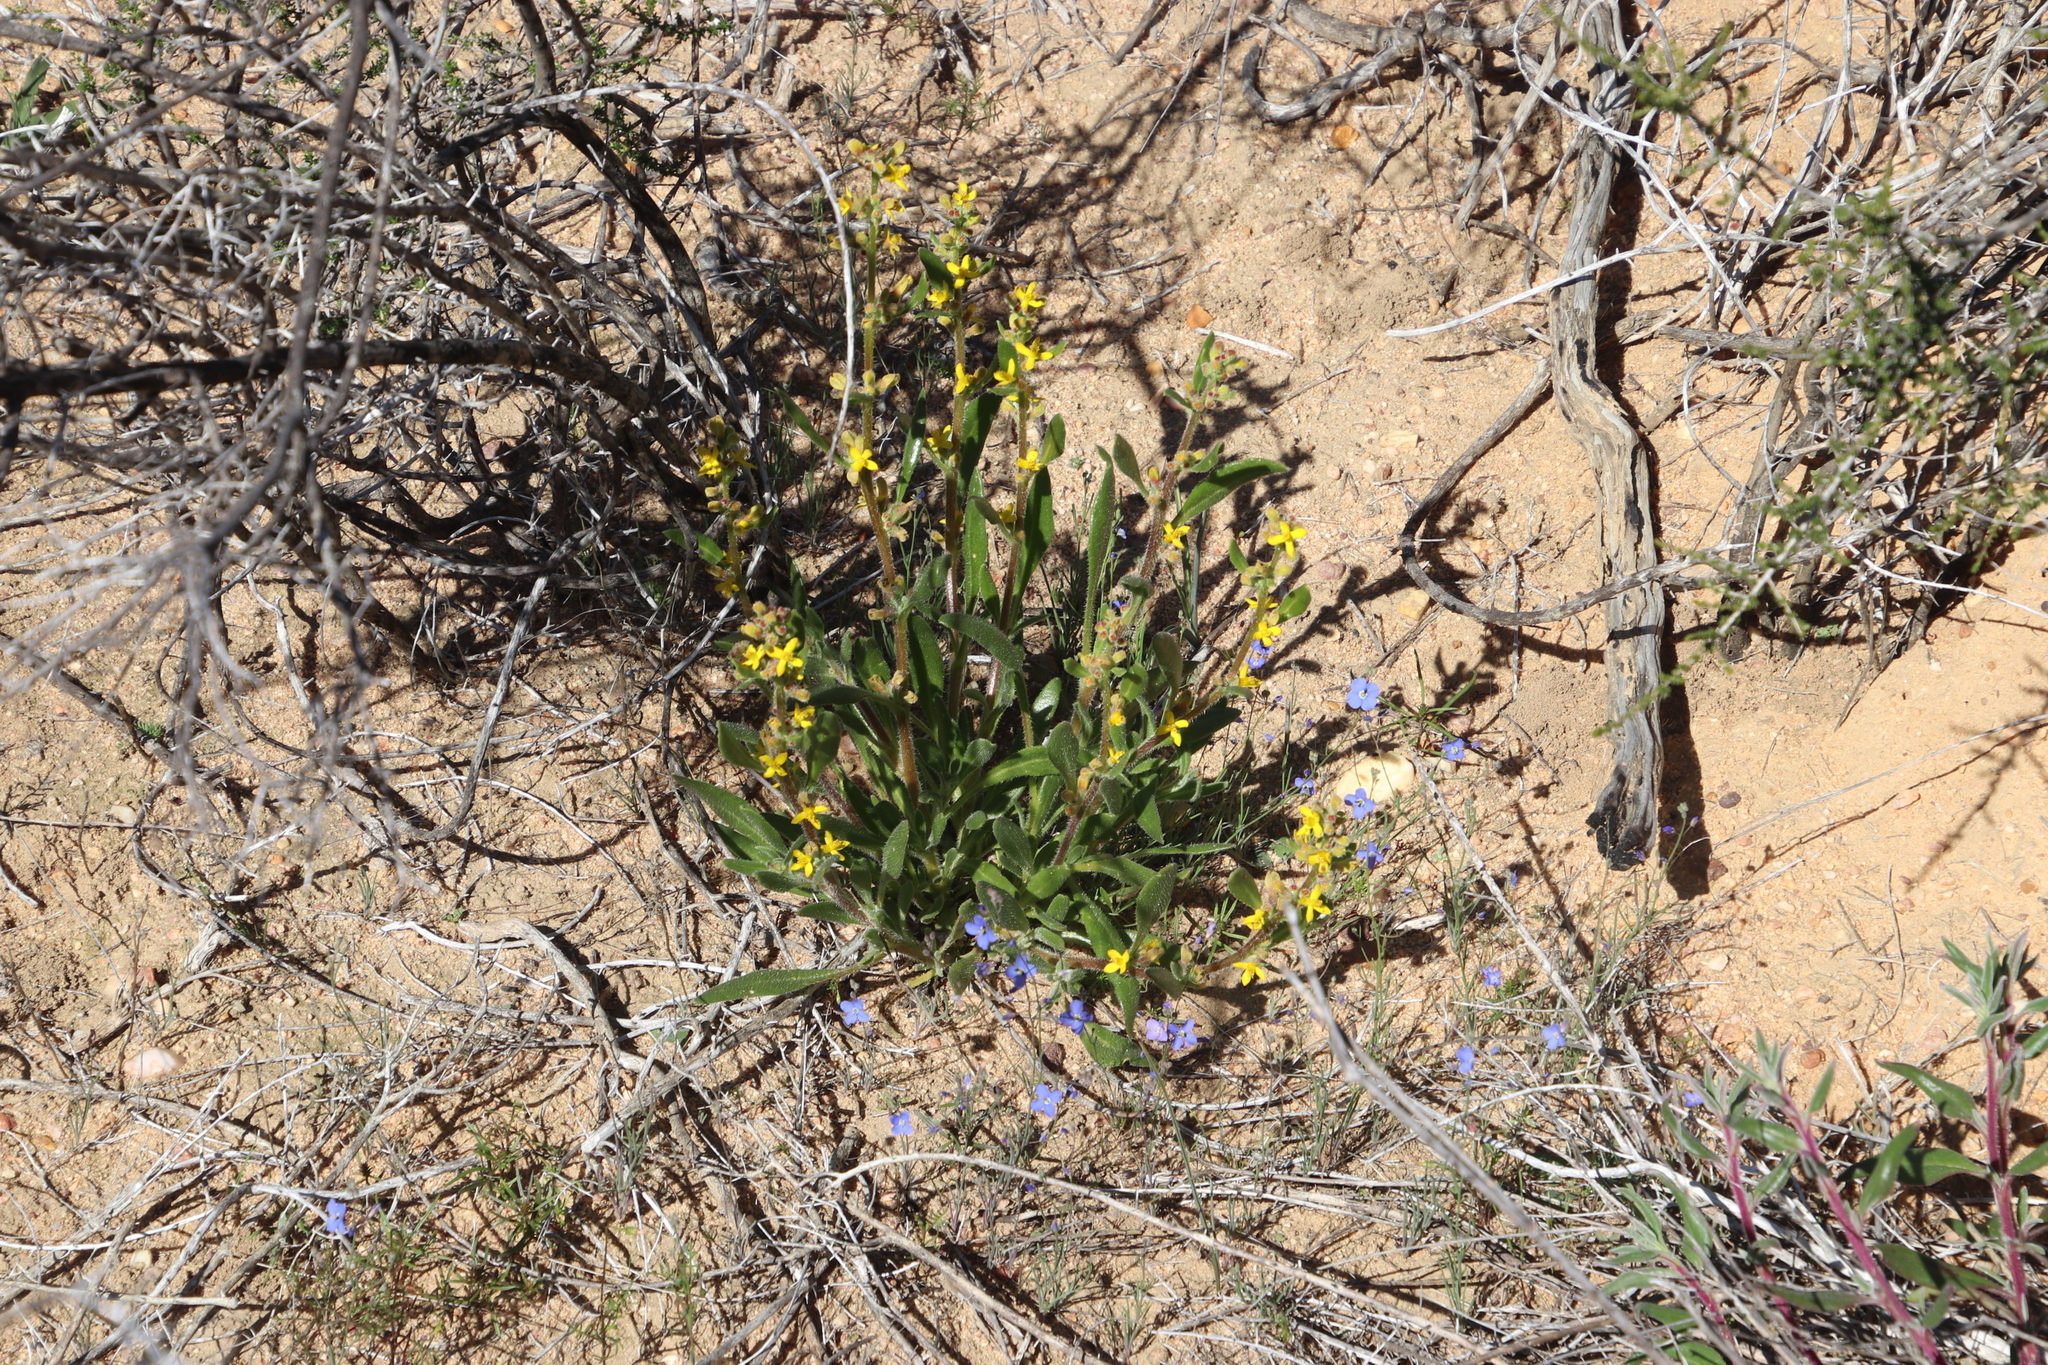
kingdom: Plantae
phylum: Tracheophyta
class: Magnoliopsida
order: Brassicales
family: Brassicaceae
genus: Heliophila
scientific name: Heliophila arenosa
